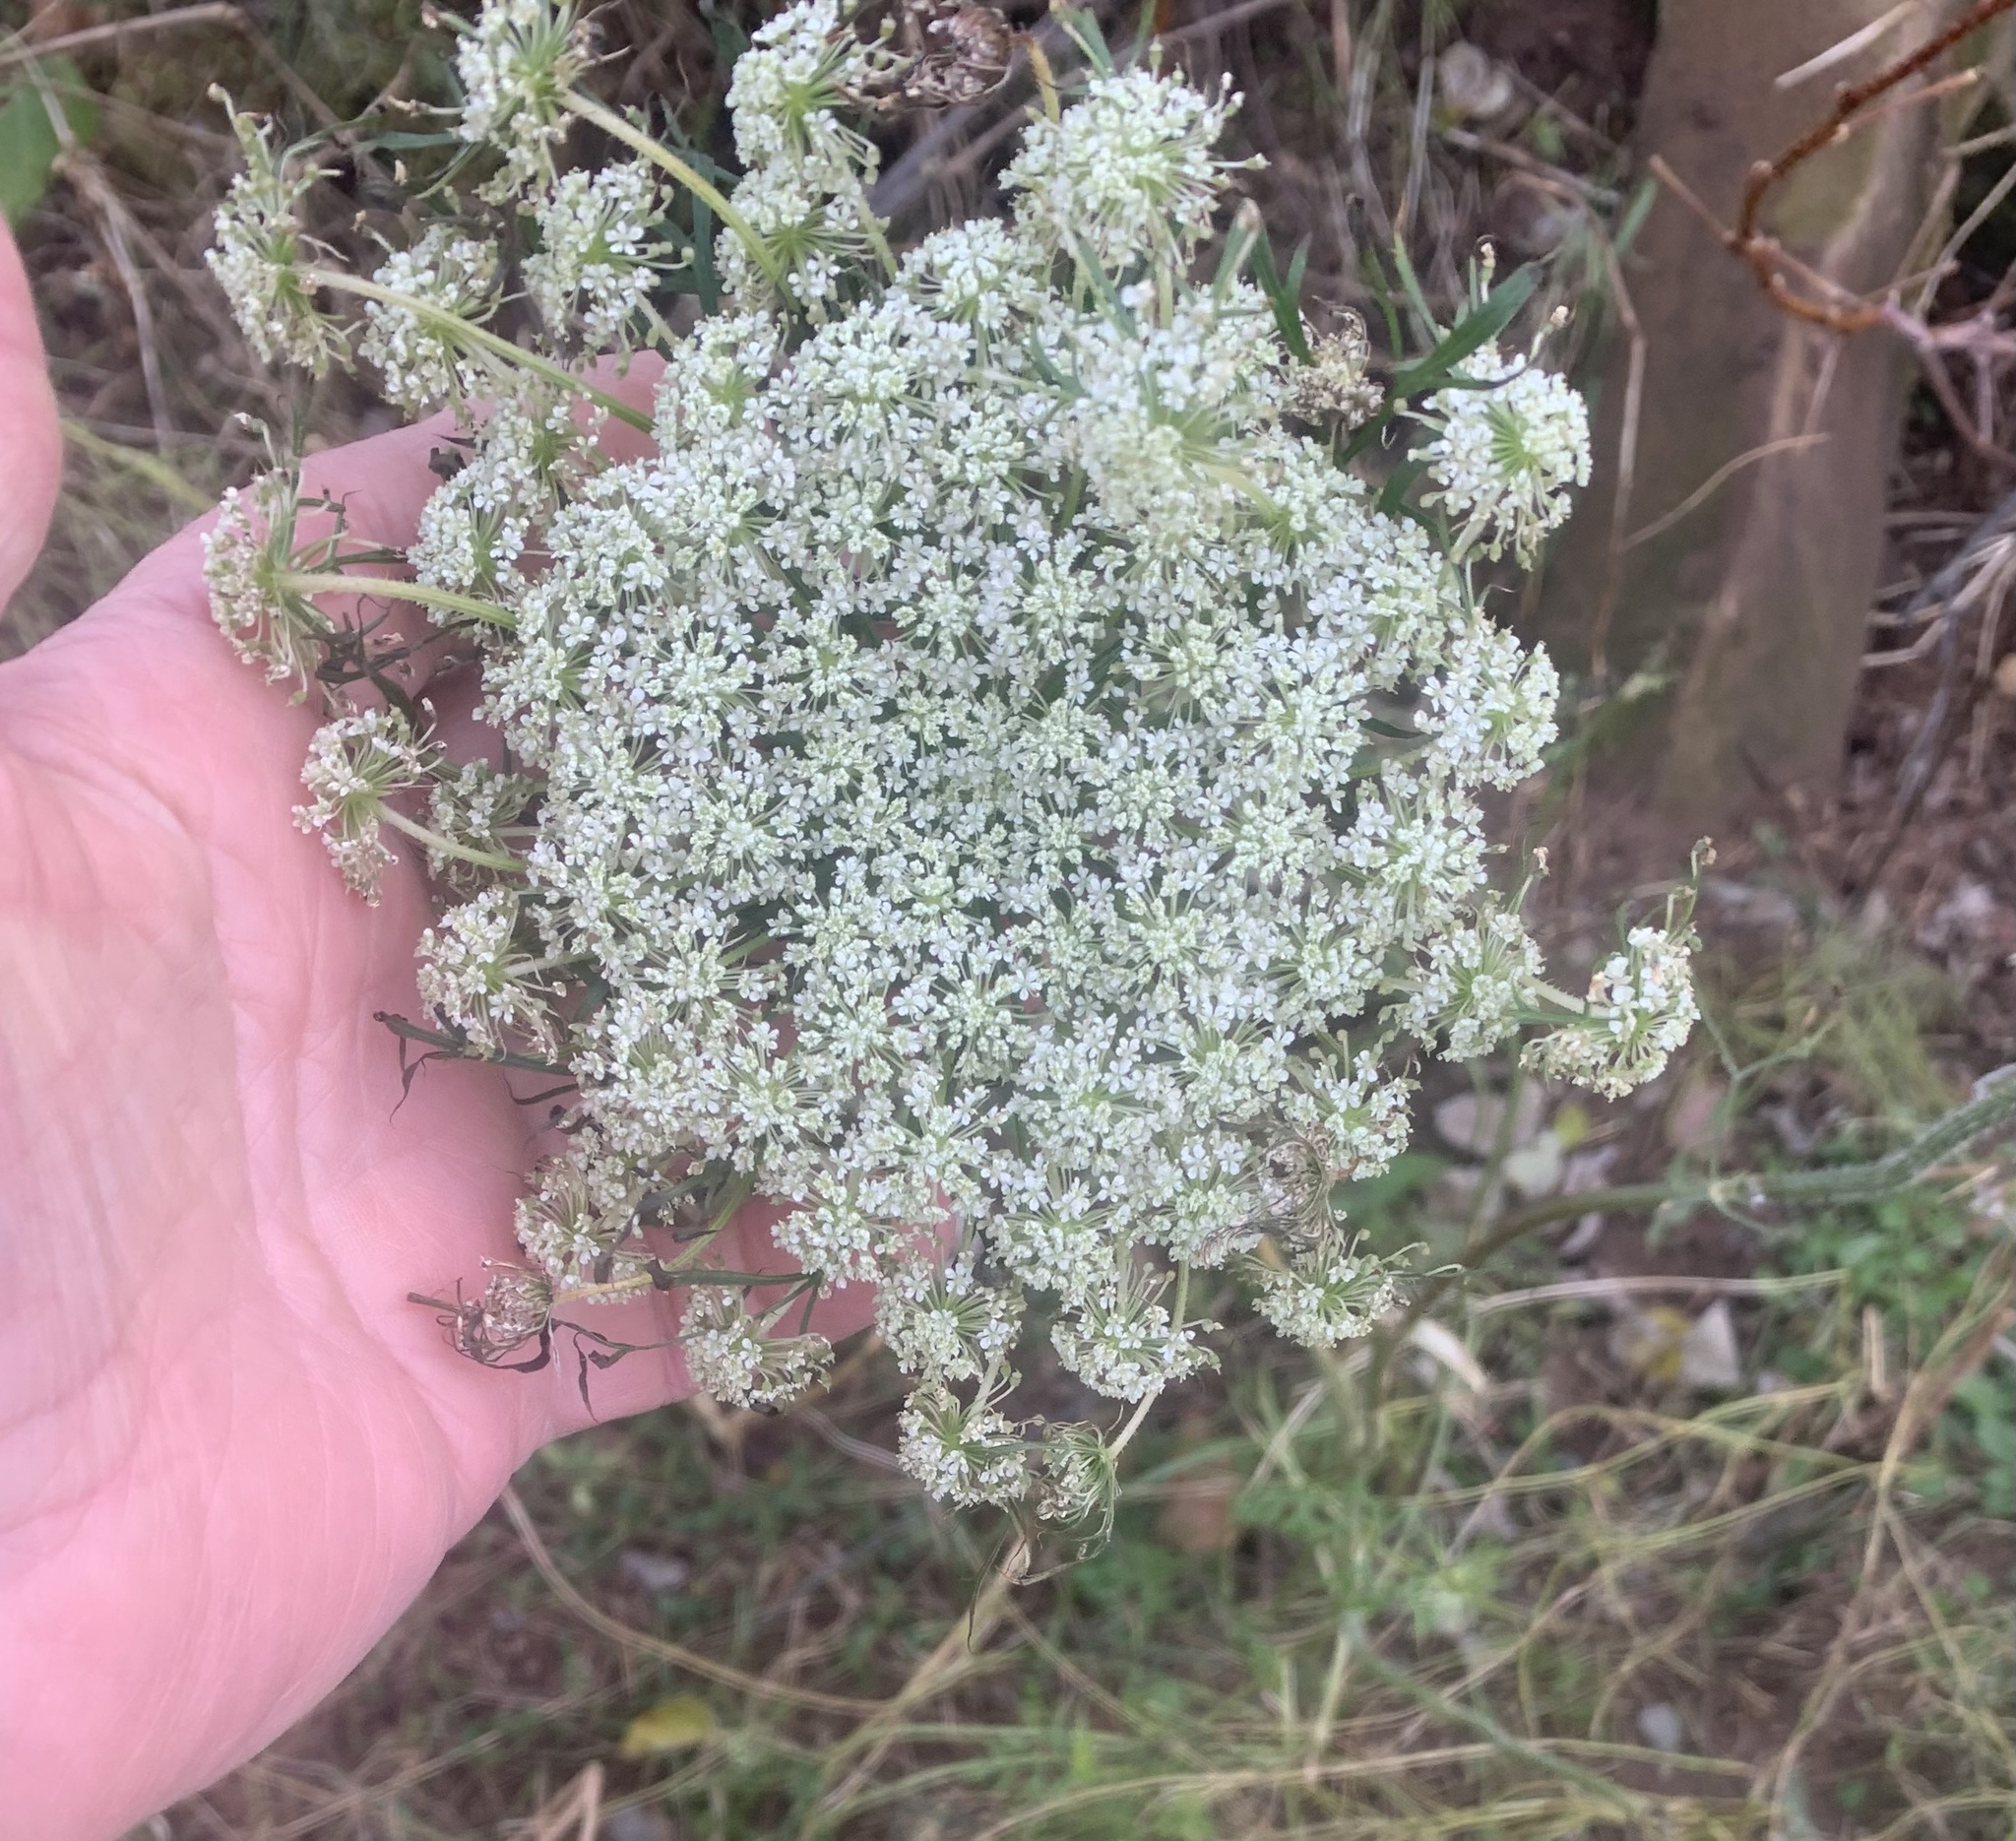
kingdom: Plantae
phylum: Tracheophyta
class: Magnoliopsida
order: Apiales
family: Apiaceae
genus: Daucus
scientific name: Daucus carota
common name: Wild carrot
